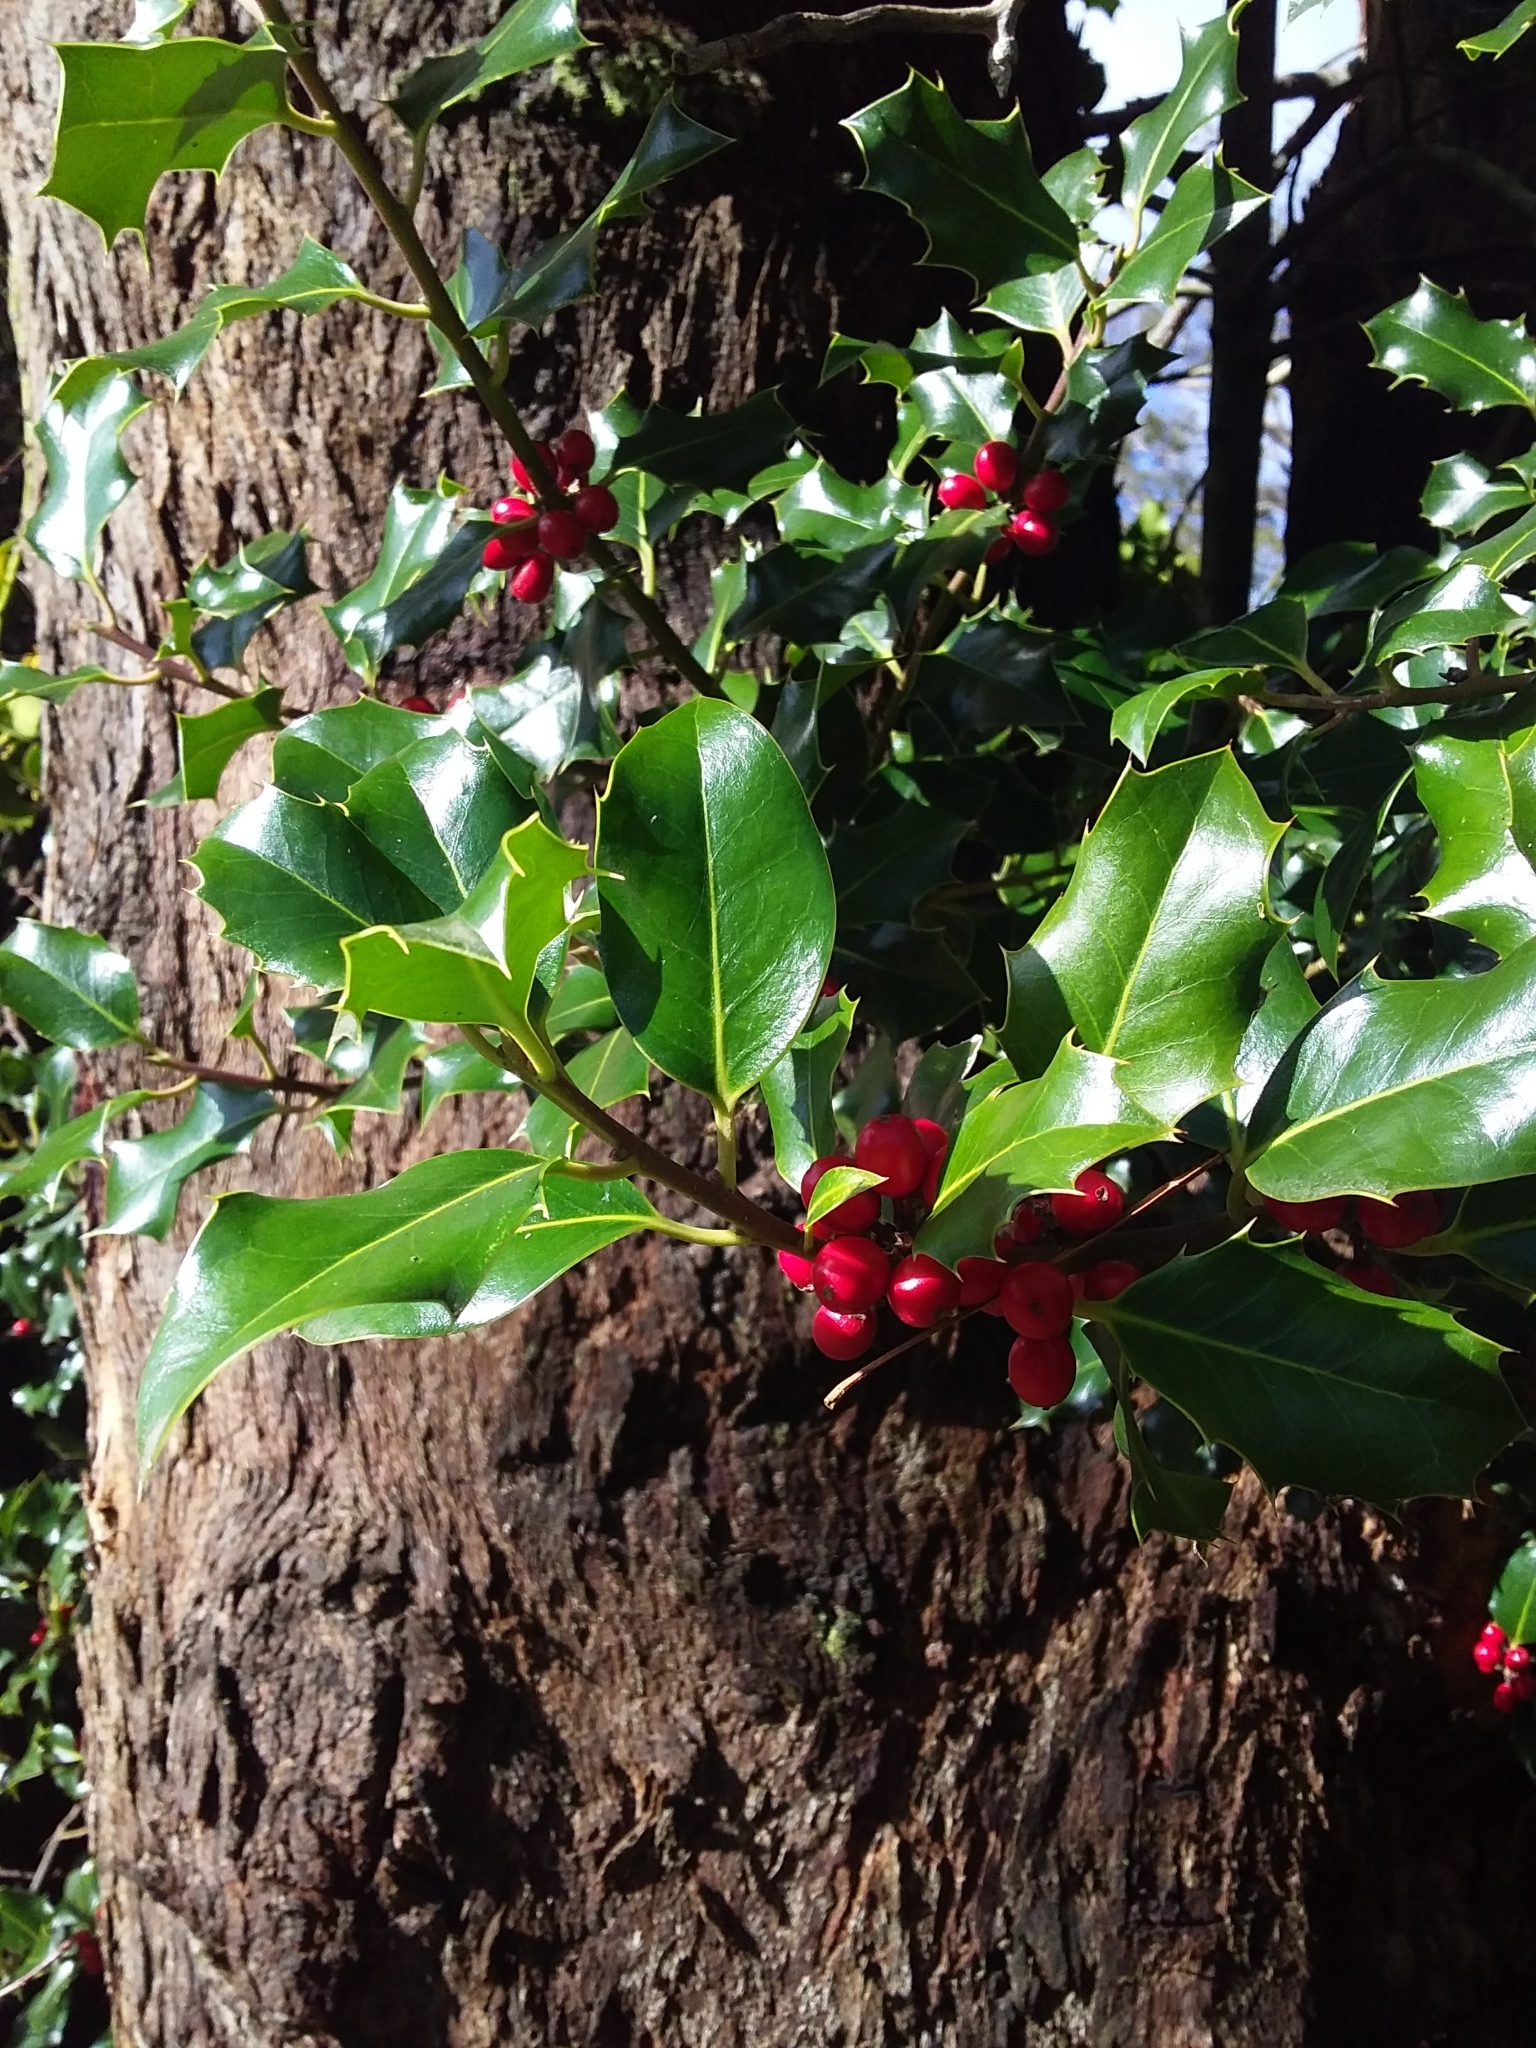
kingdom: Plantae
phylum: Tracheophyta
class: Magnoliopsida
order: Aquifoliales
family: Aquifoliaceae
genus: Ilex
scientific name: Ilex aquifolium
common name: English holly
